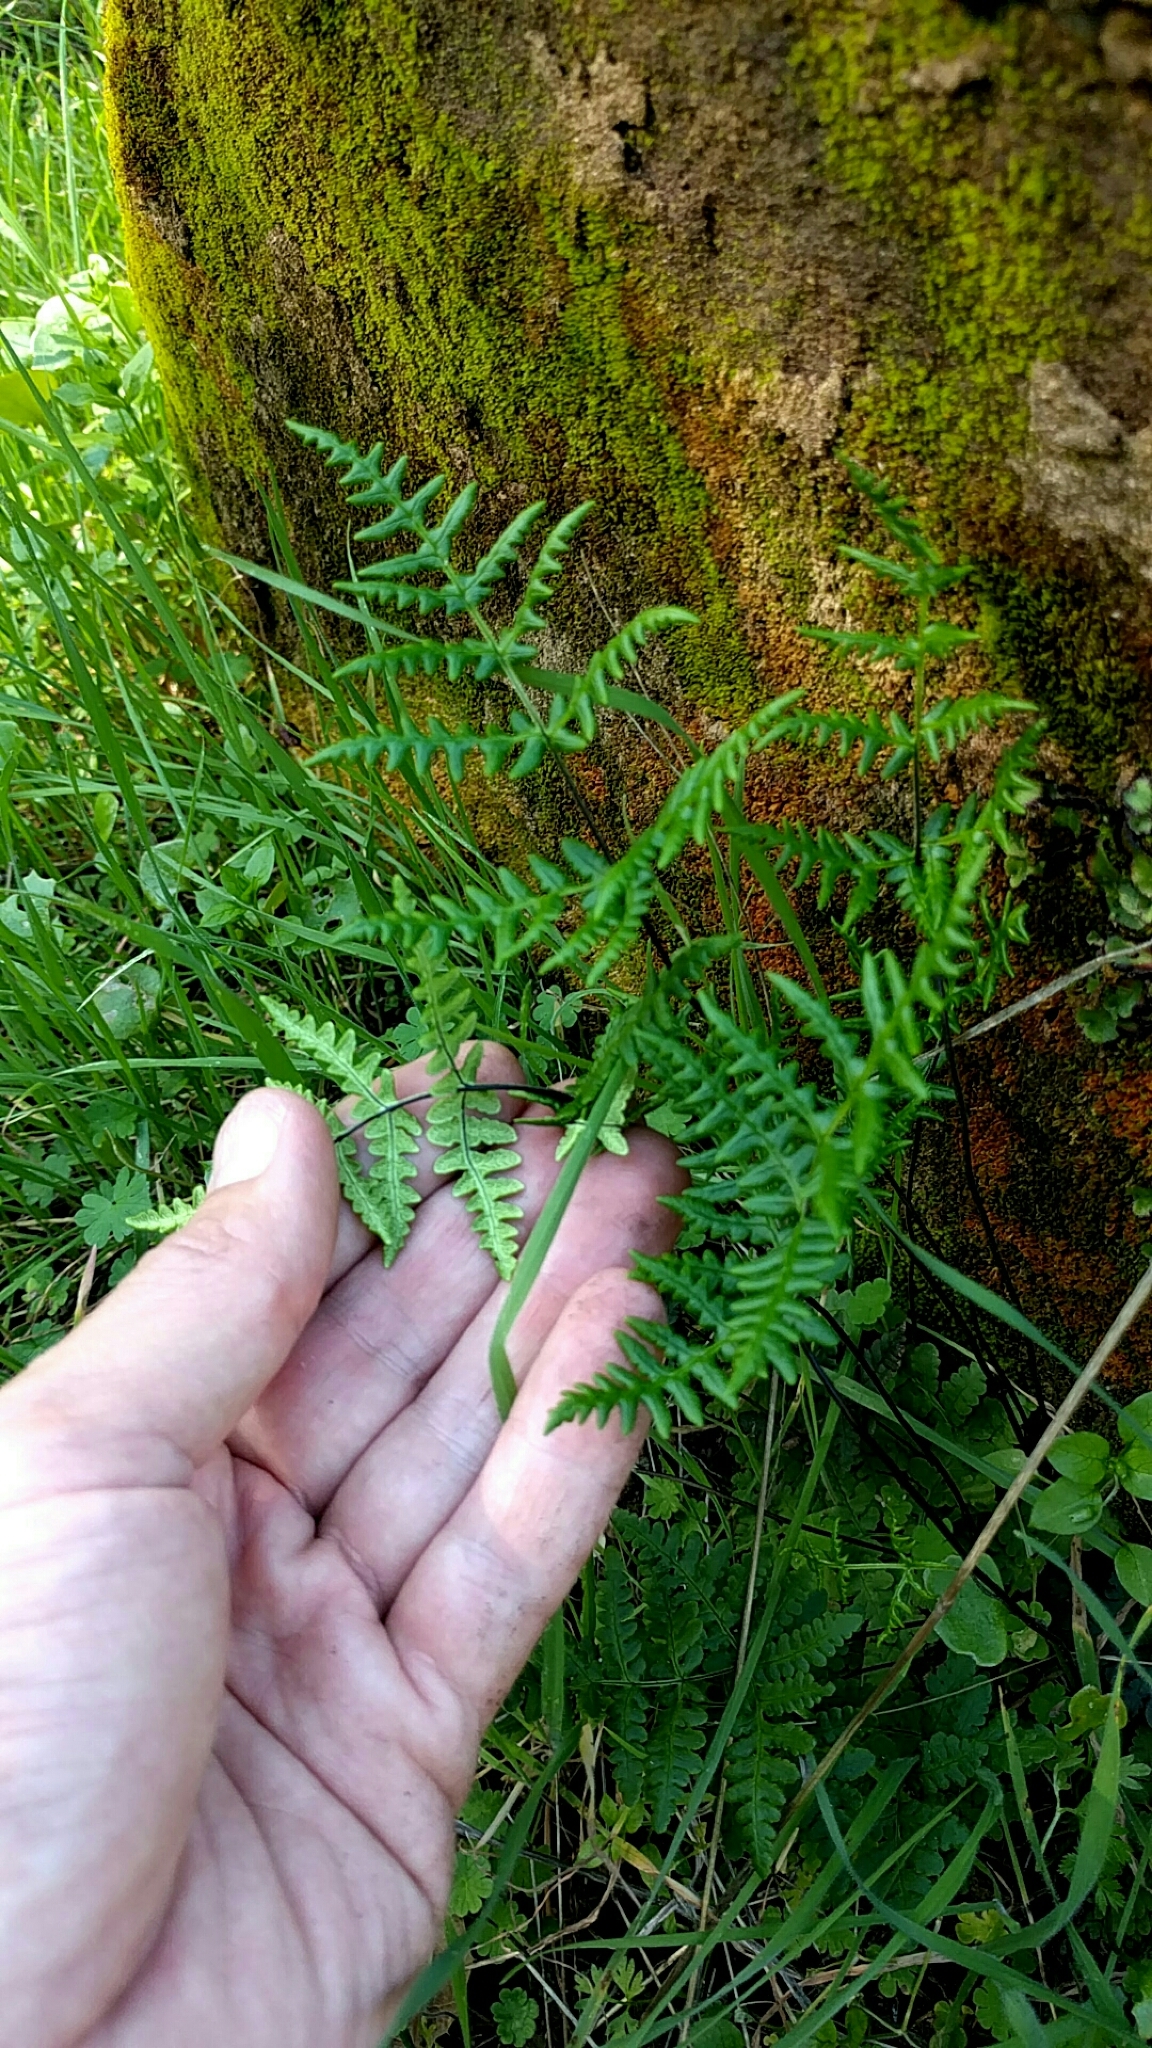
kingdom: Plantae
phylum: Tracheophyta
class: Polypodiopsida
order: Polypodiales
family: Pteridaceae
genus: Pentagramma
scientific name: Pentagramma triangularis
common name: Gold fern
